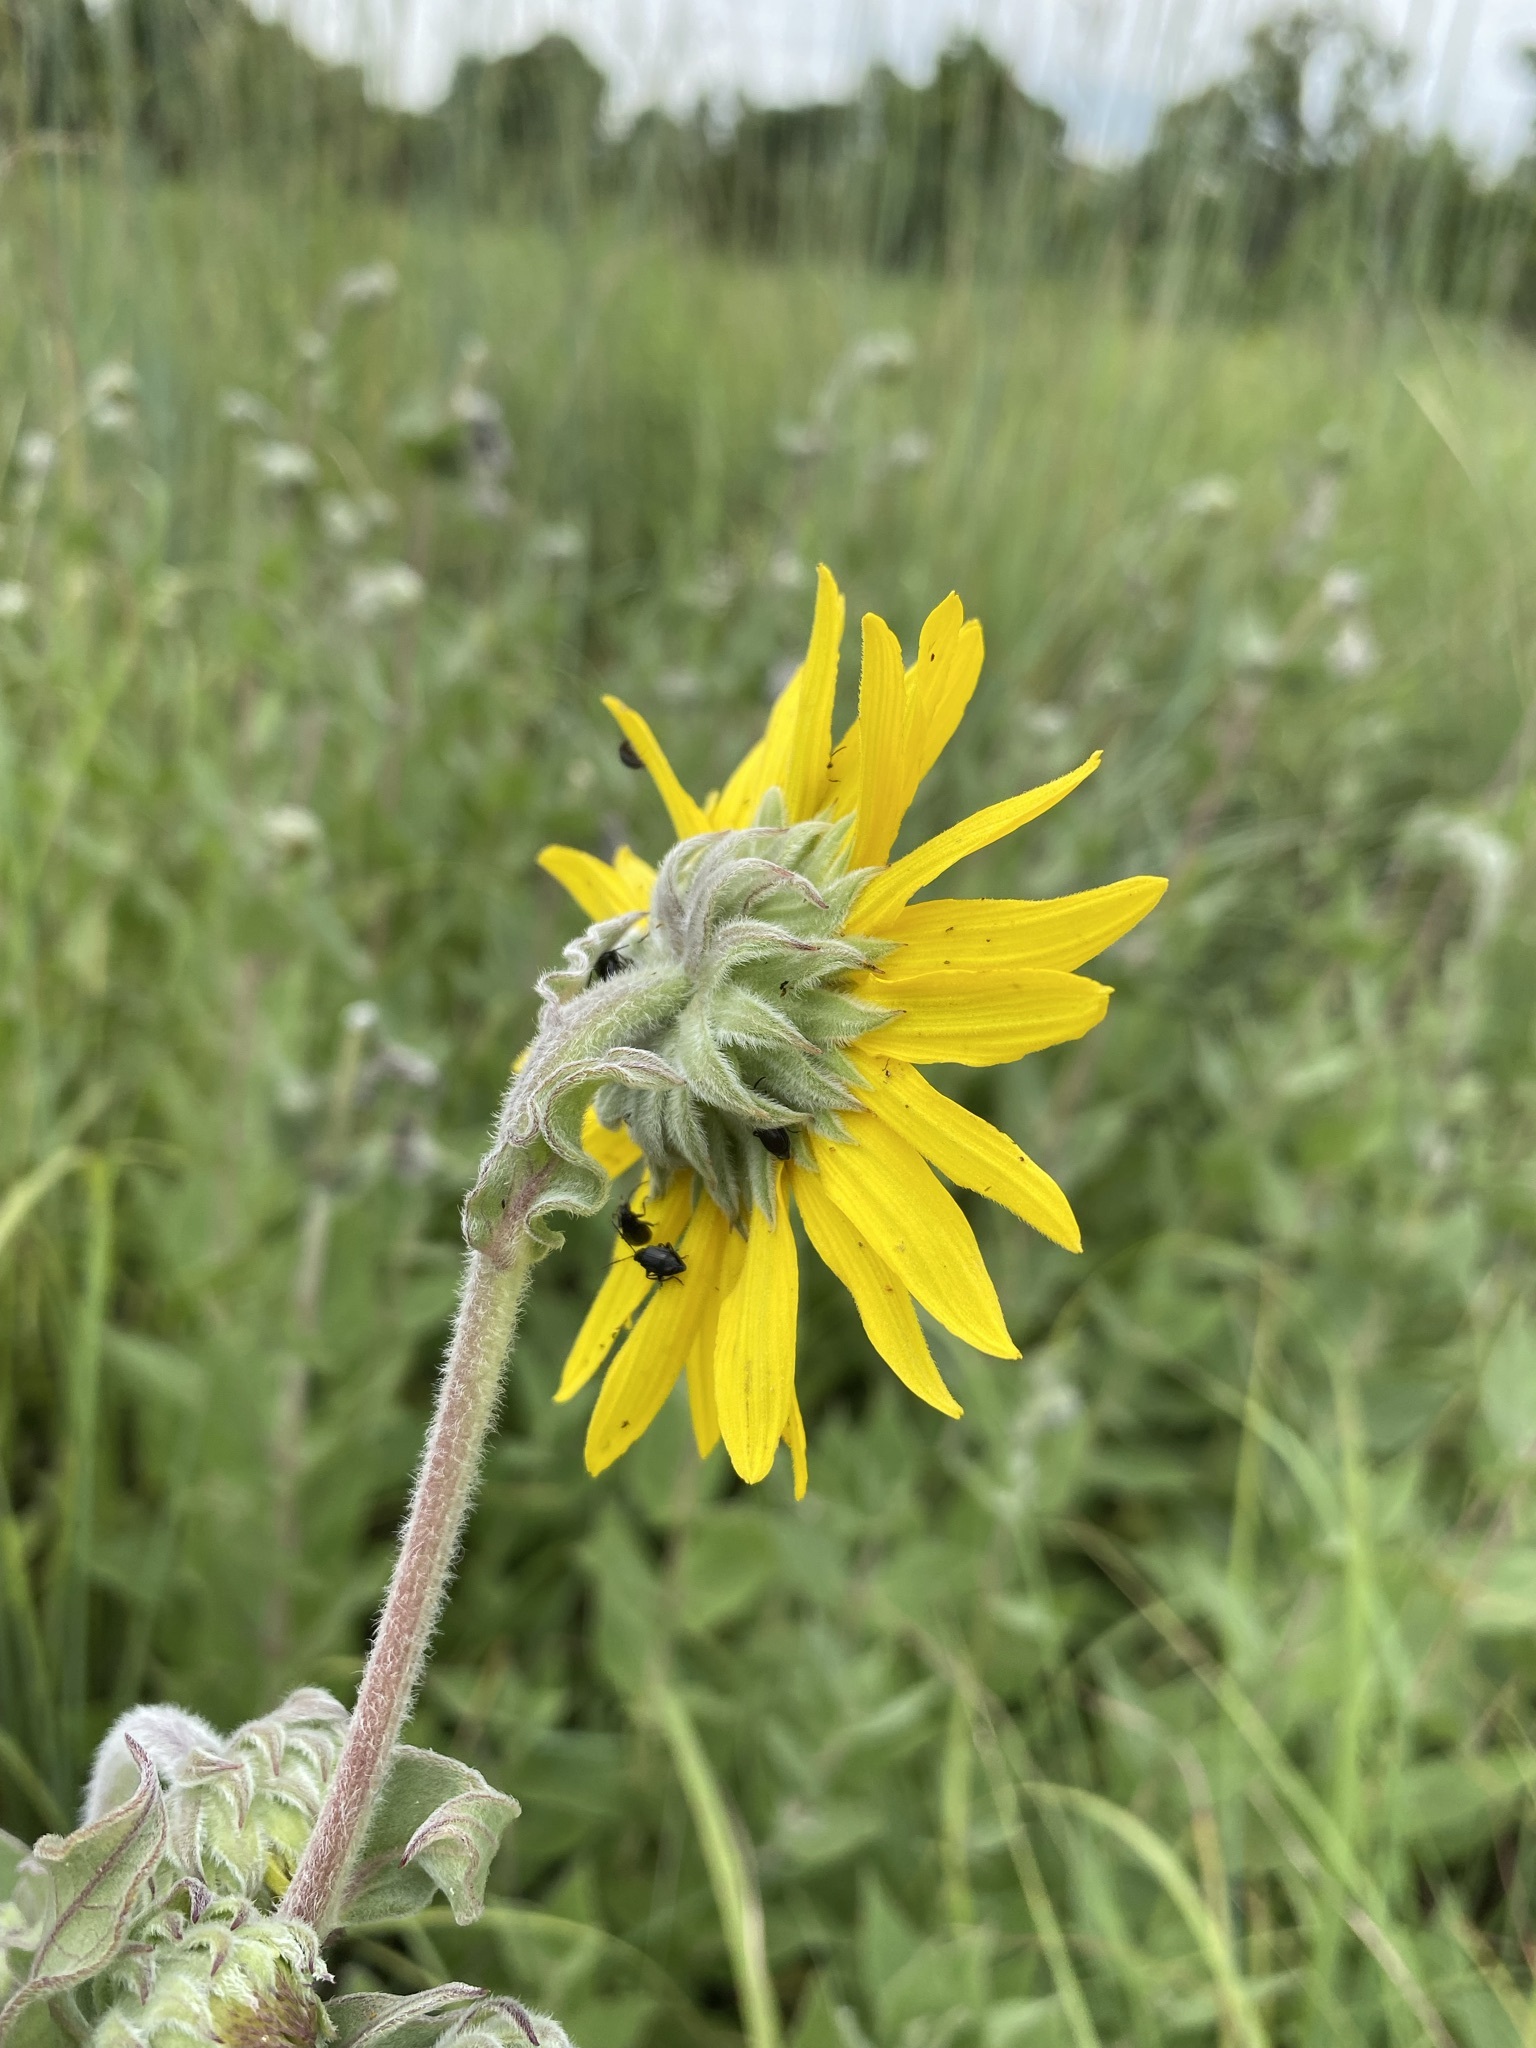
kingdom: Plantae
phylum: Tracheophyta
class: Magnoliopsida
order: Asterales
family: Asteraceae
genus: Helianthus
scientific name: Helianthus mollis
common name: Ashy sunflower
